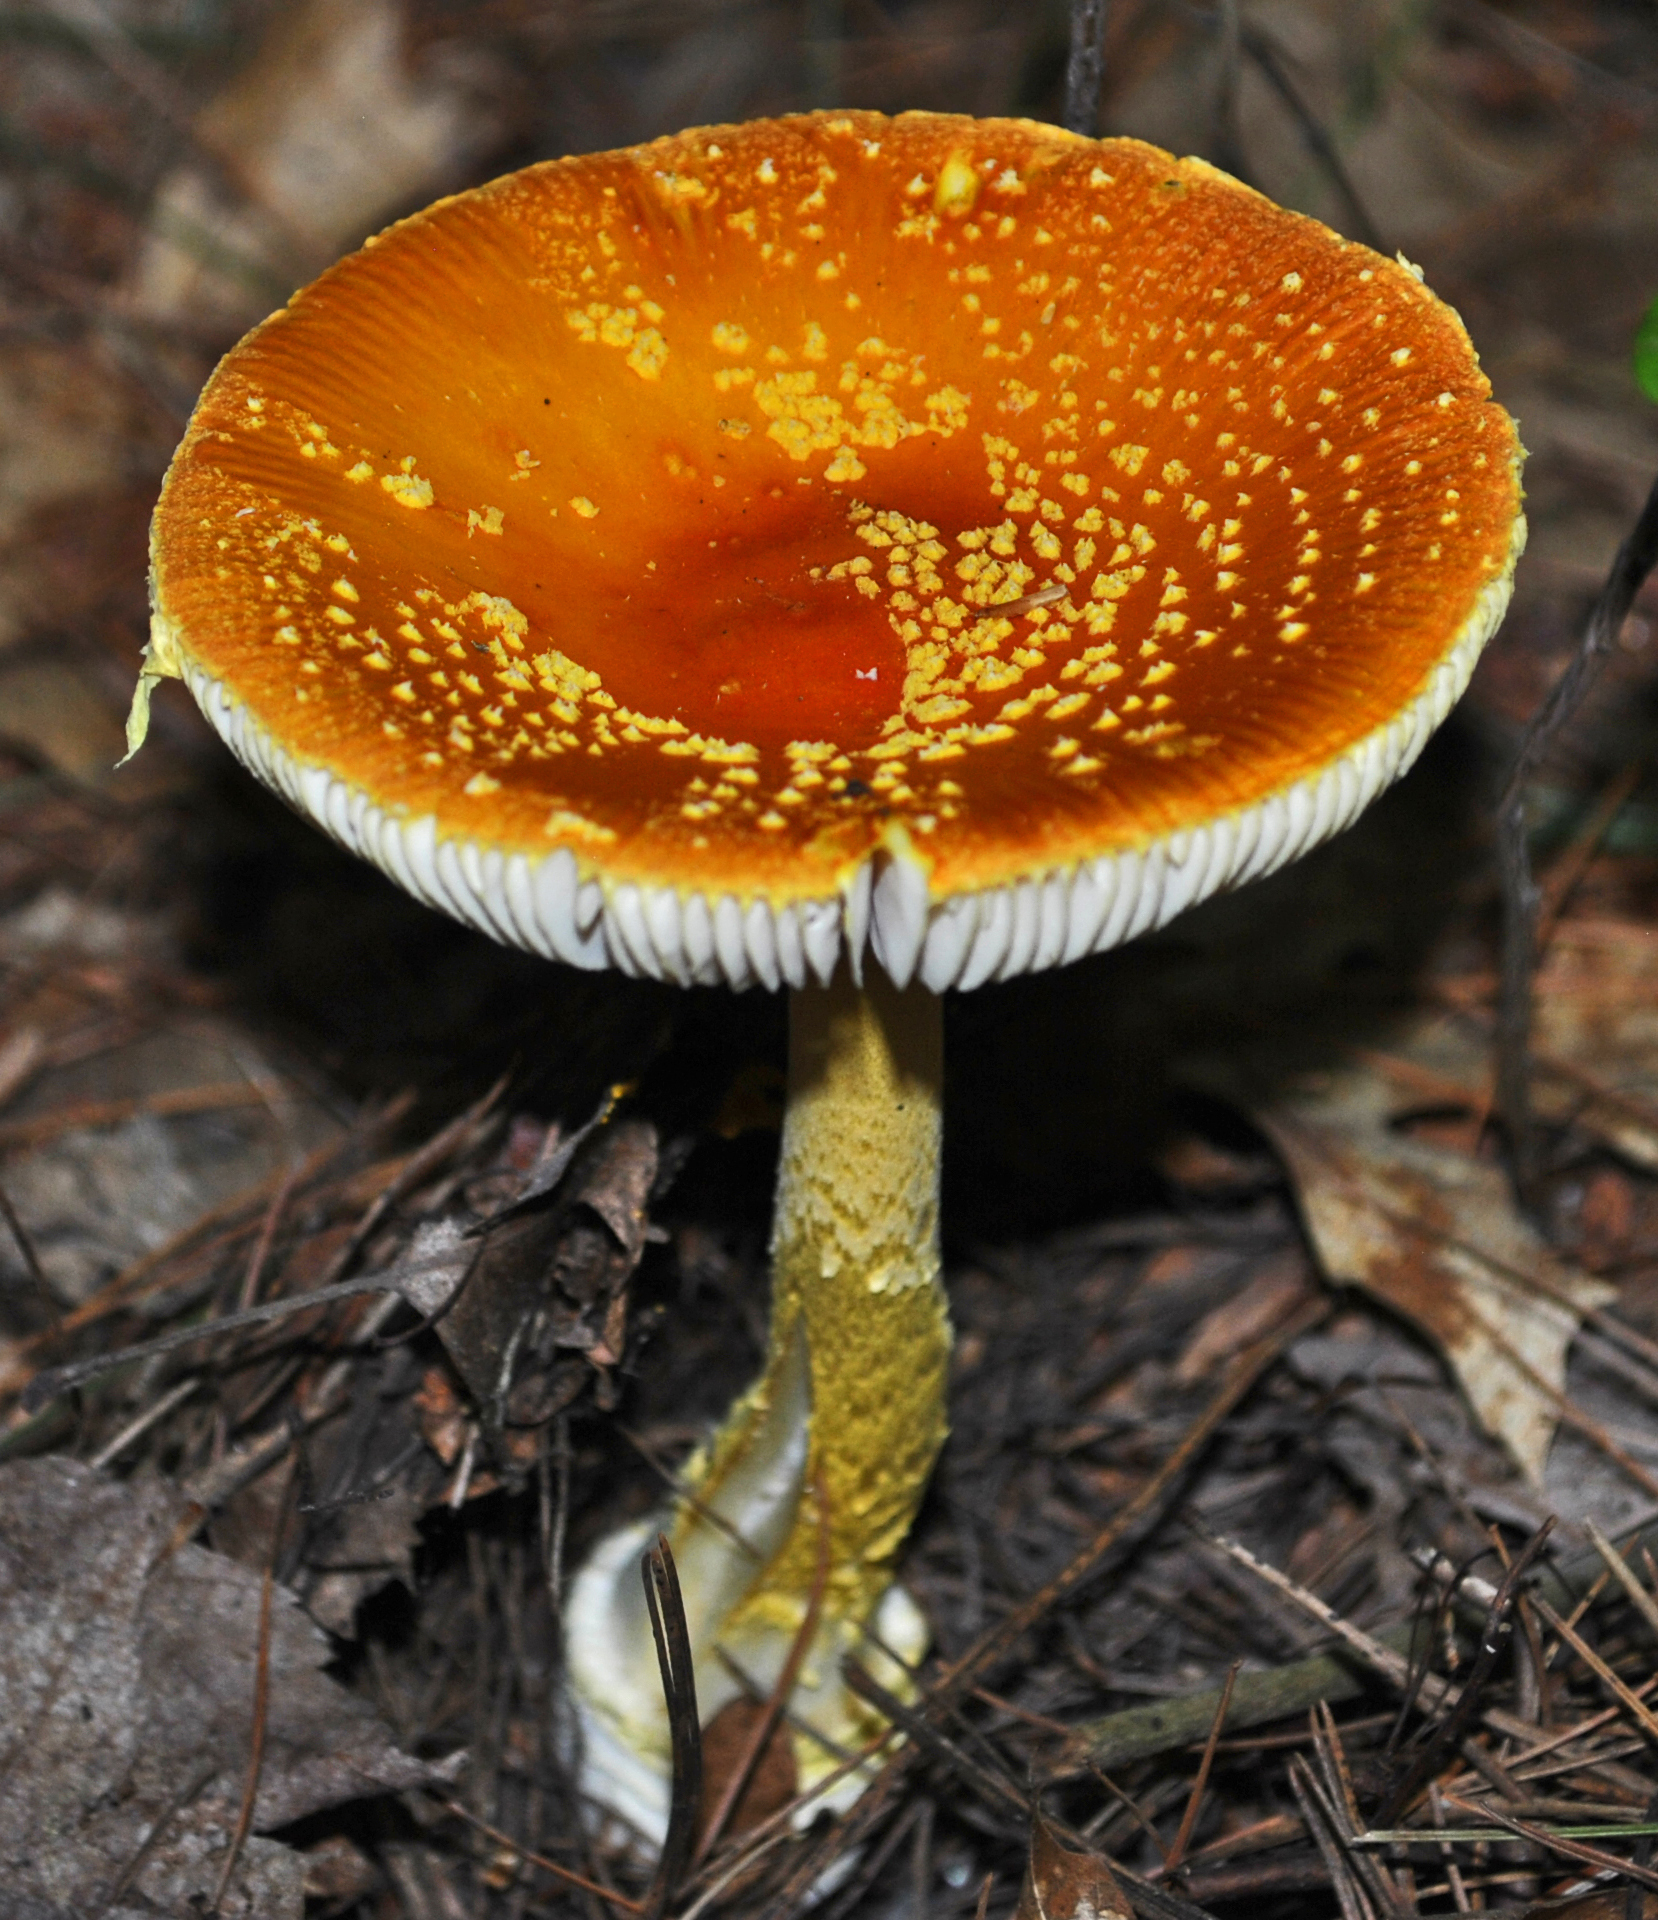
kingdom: Fungi
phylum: Basidiomycota
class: Agaricomycetes
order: Agaricales
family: Amanitaceae
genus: Amanita
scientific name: Amanita frostiana
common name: Frost's amanita
